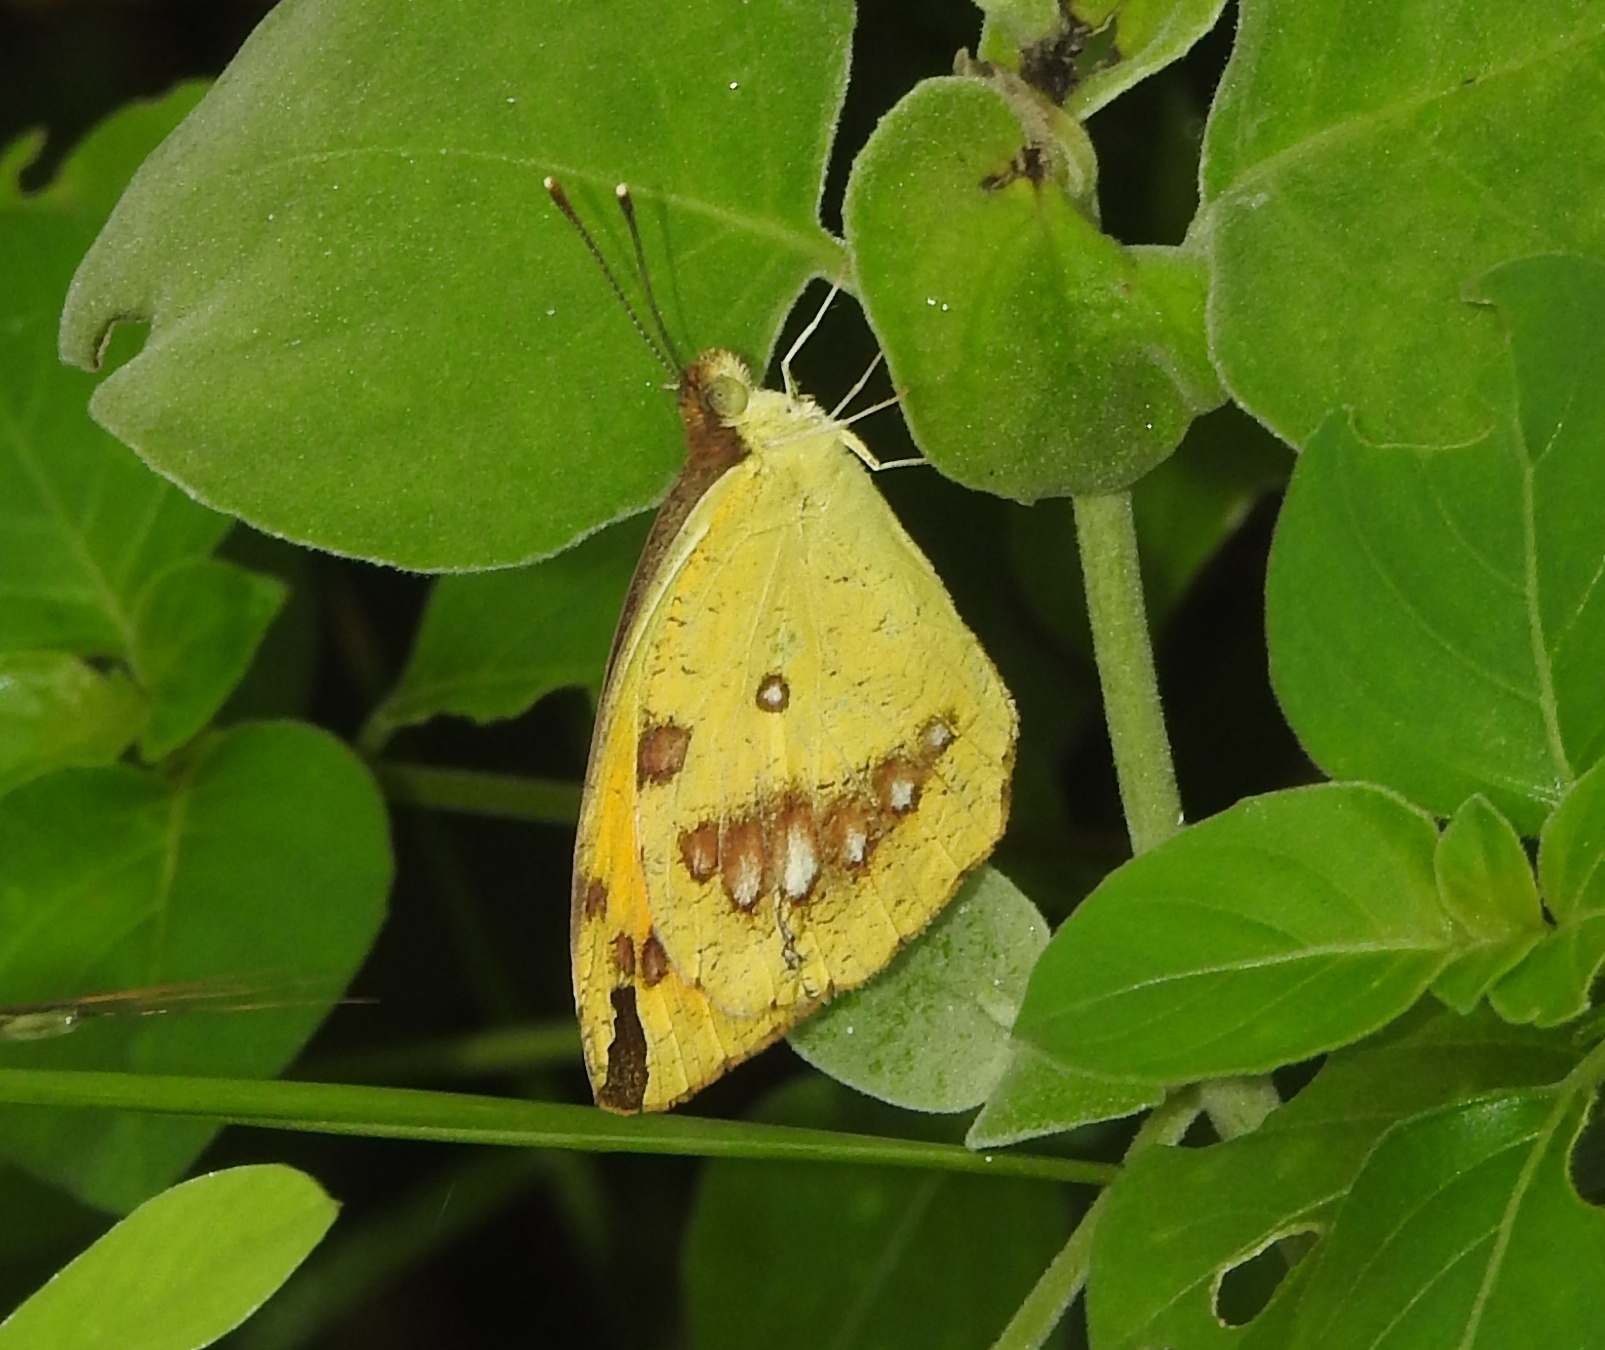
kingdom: Animalia
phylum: Arthropoda
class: Insecta
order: Lepidoptera
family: Pieridae
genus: Ixias
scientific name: Ixias marianne
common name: White orange tip
